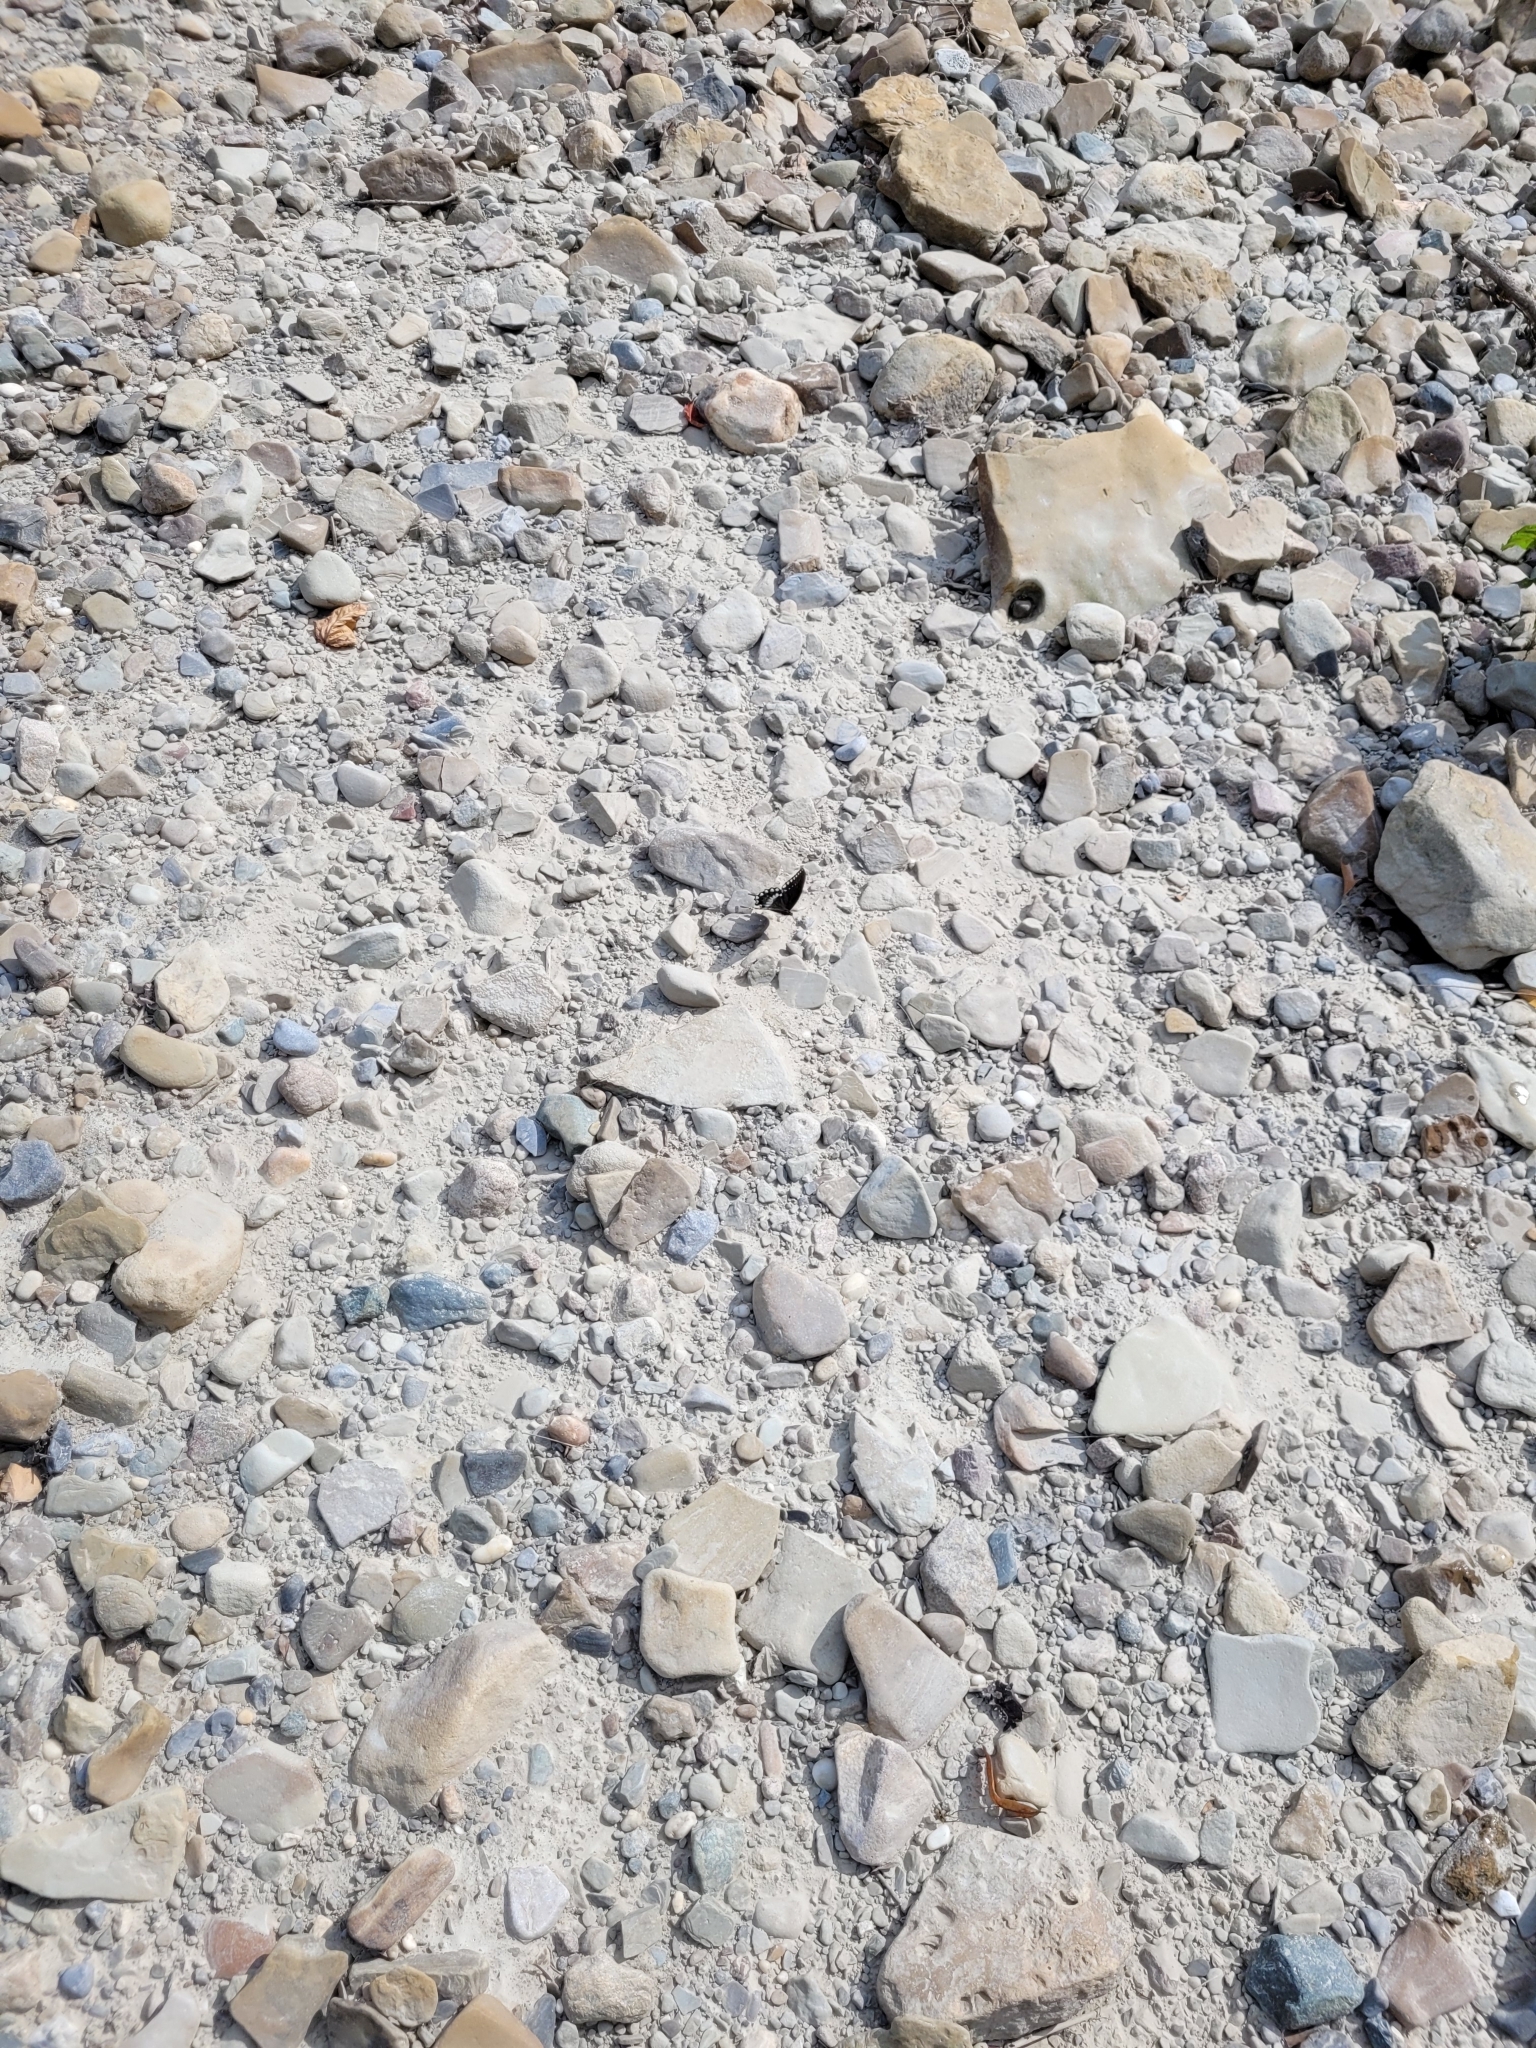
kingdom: Animalia
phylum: Arthropoda
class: Insecta
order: Lepidoptera
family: Papilionidae
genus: Papilio
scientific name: Papilio troilus
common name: Spicebush swallowtail
